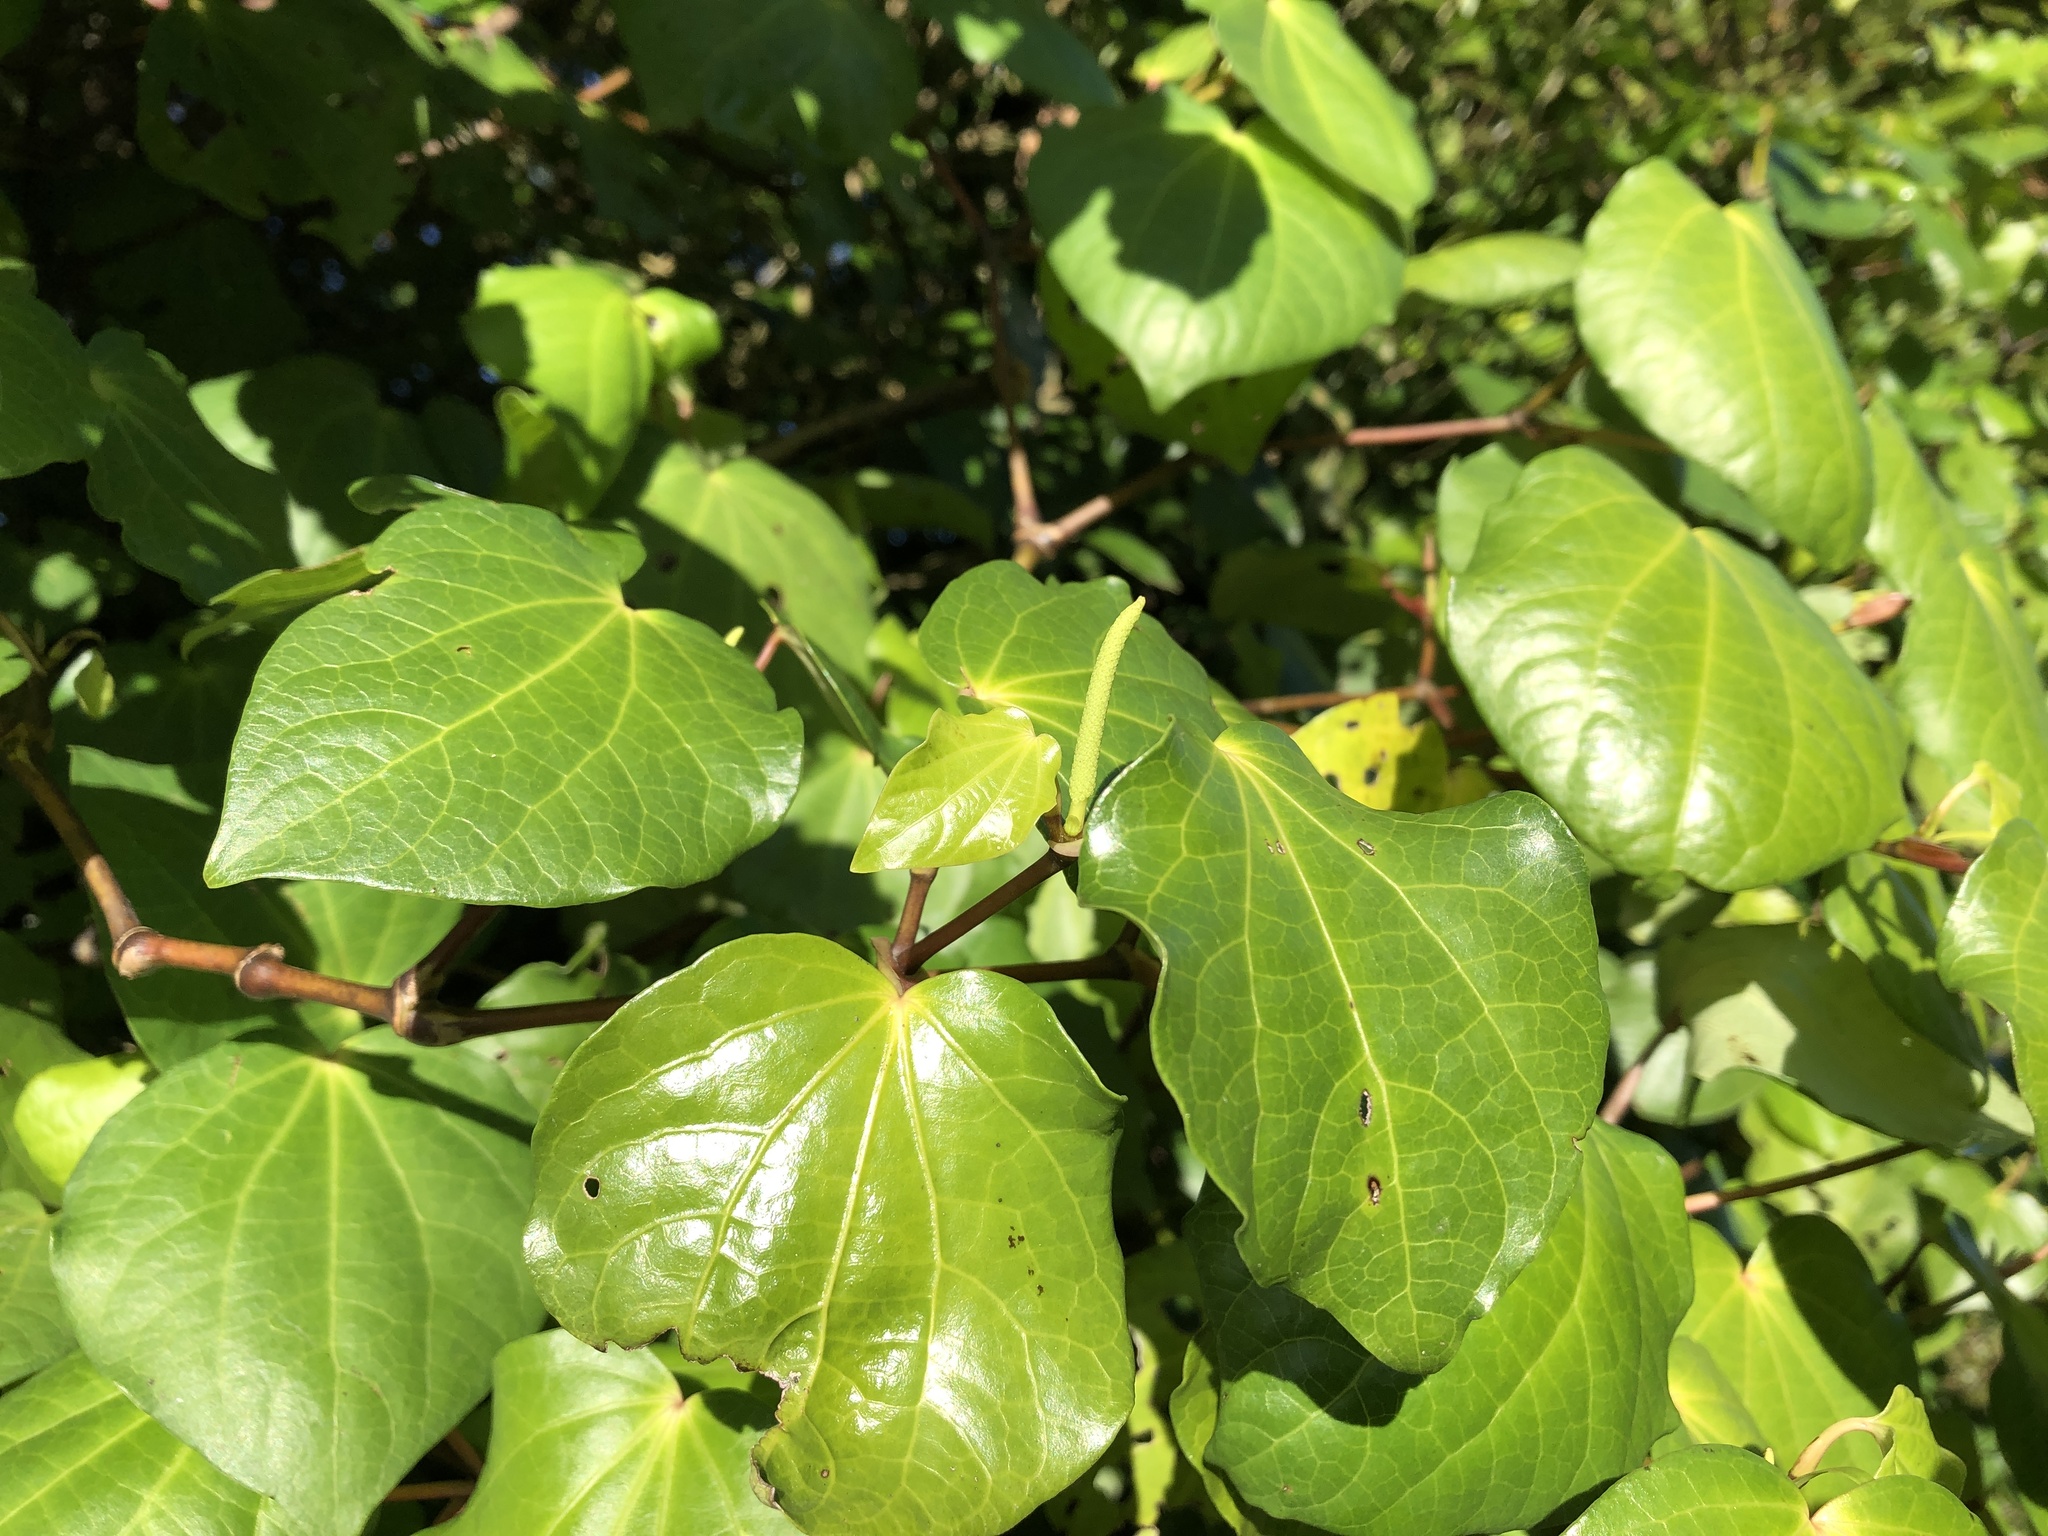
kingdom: Plantae
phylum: Tracheophyta
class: Magnoliopsida
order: Piperales
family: Piperaceae
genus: Macropiper
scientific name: Macropiper excelsum
